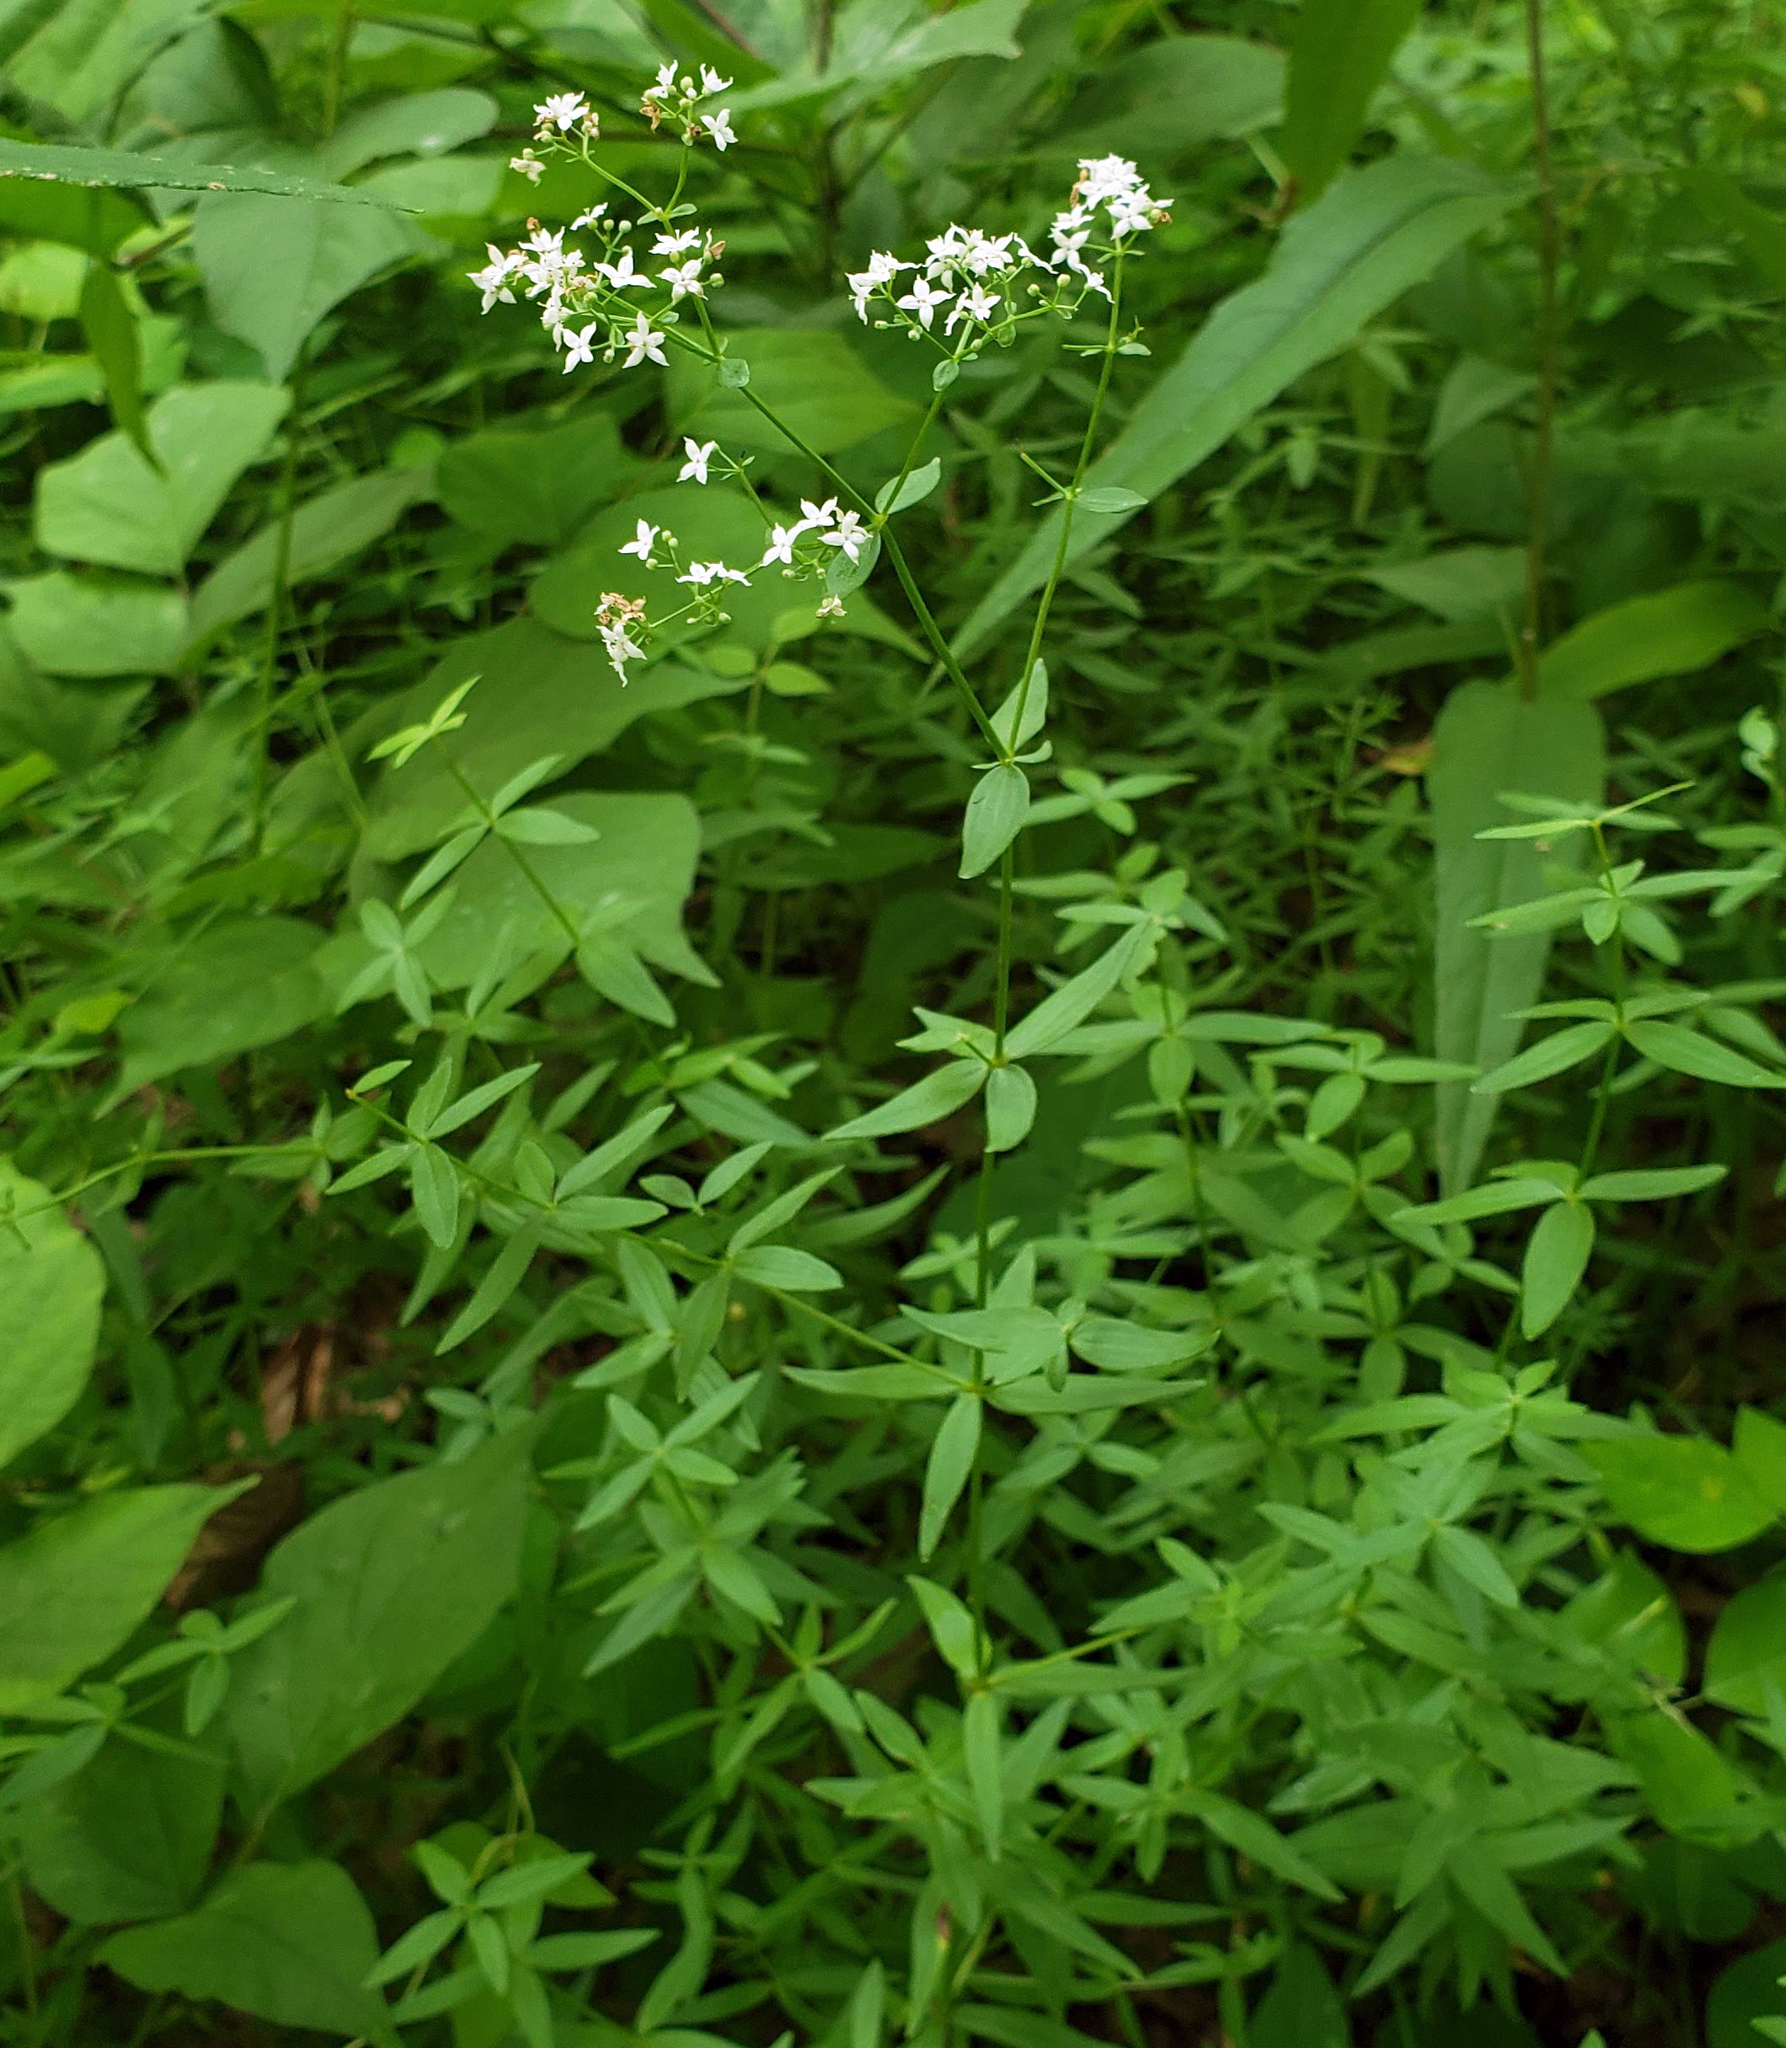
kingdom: Plantae
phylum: Tracheophyta
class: Magnoliopsida
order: Gentianales
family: Rubiaceae
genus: Galium
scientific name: Galium boreale
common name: Northern bedstraw
